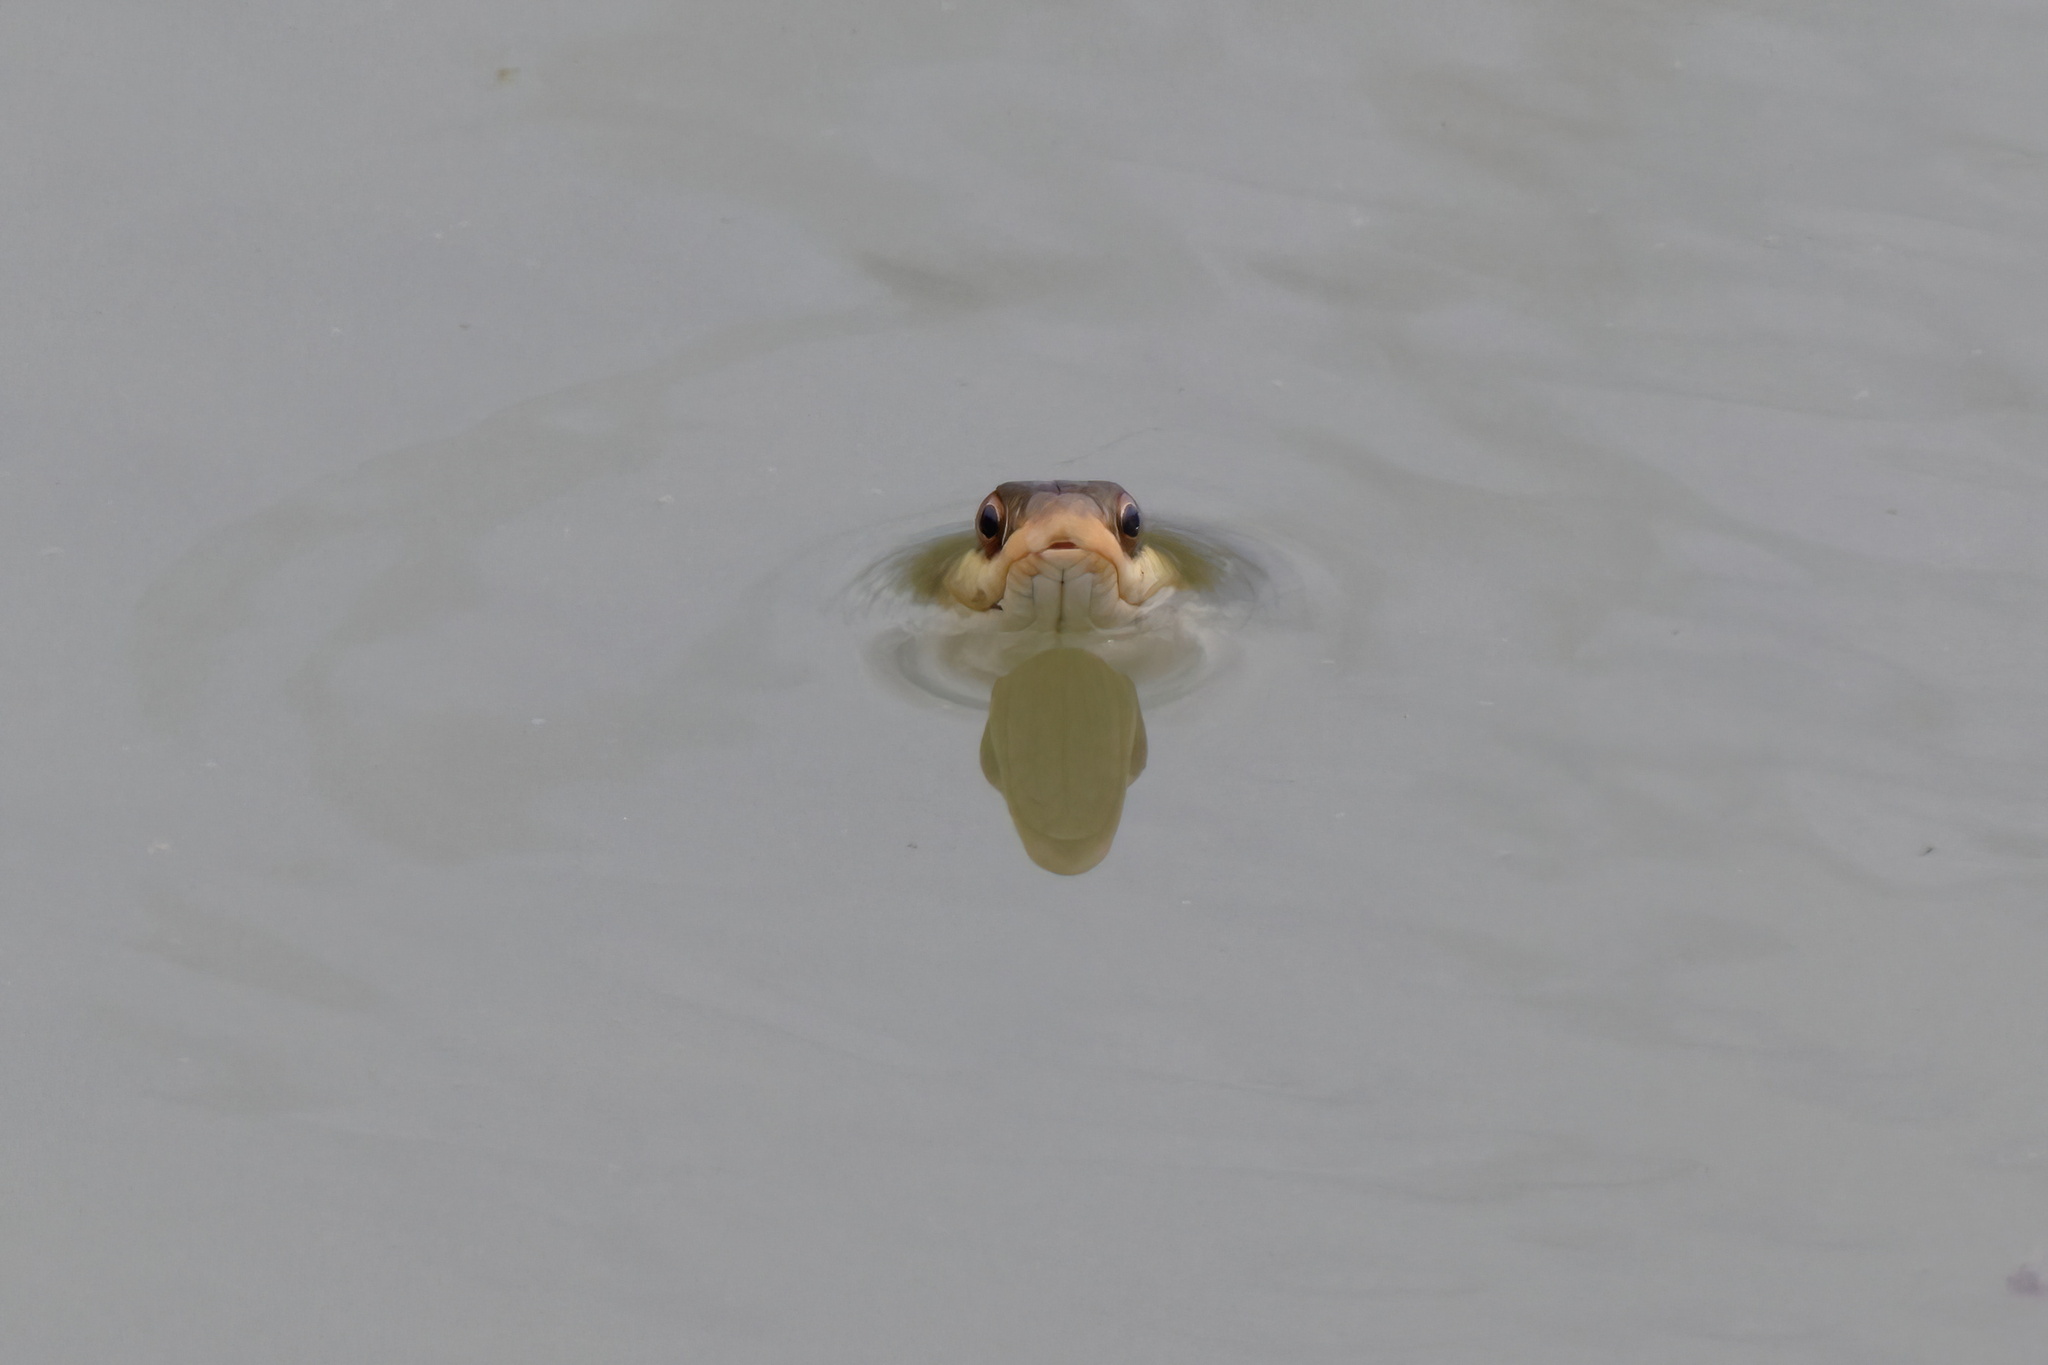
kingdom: Animalia
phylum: Chordata
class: Squamata
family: Colubridae
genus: Thamnophis
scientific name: Thamnophis proximus
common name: Western ribbon snake
